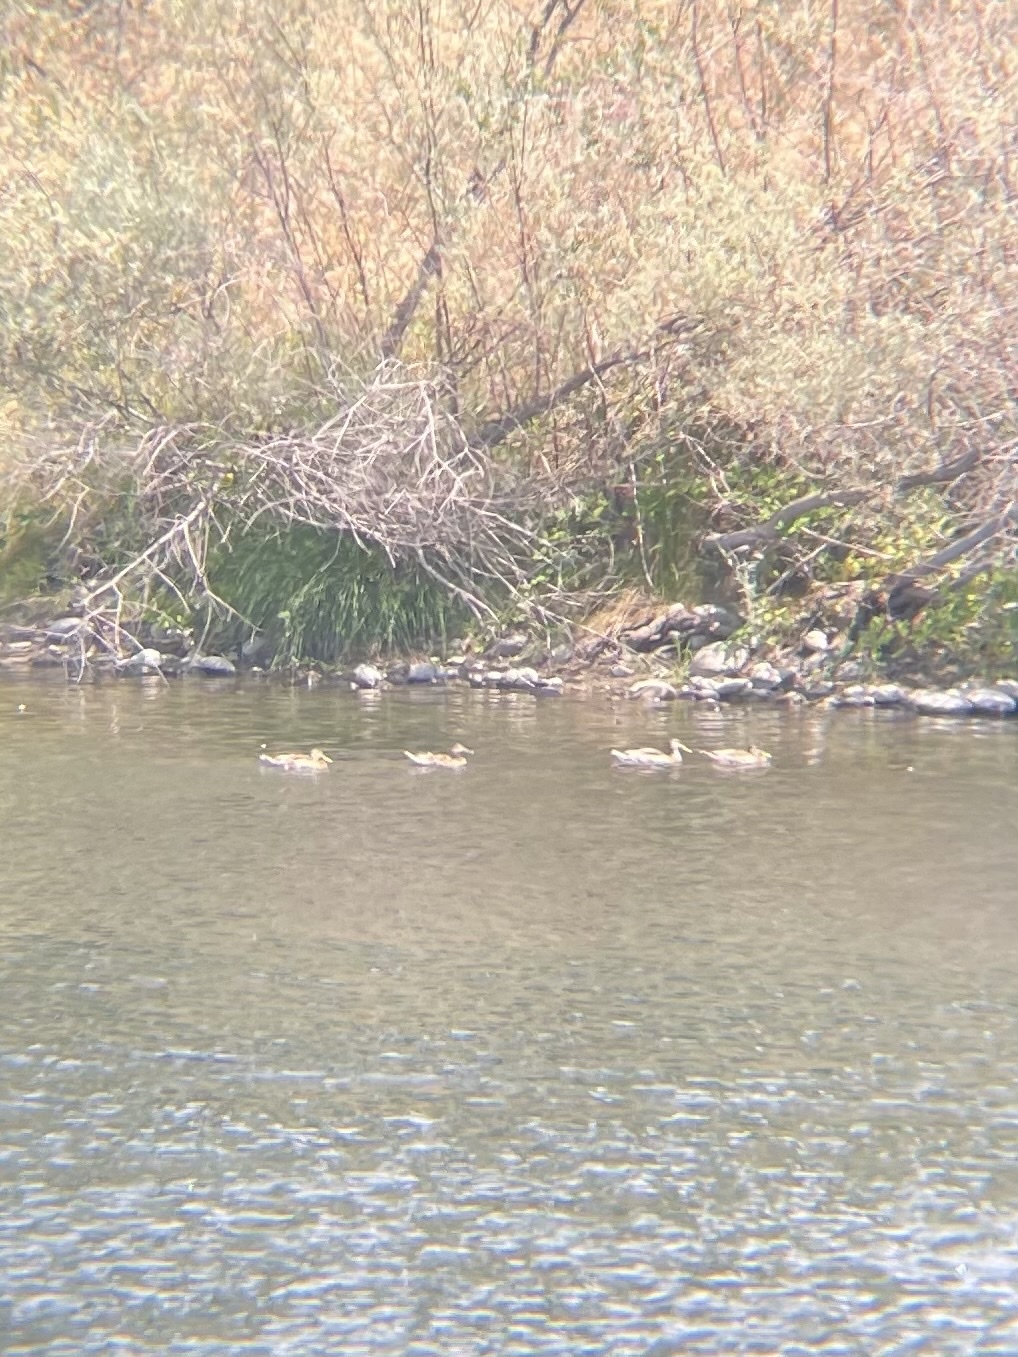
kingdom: Animalia
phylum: Chordata
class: Aves
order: Anseriformes
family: Anatidae
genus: Anas
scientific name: Anas platyrhynchos
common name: Mallard
